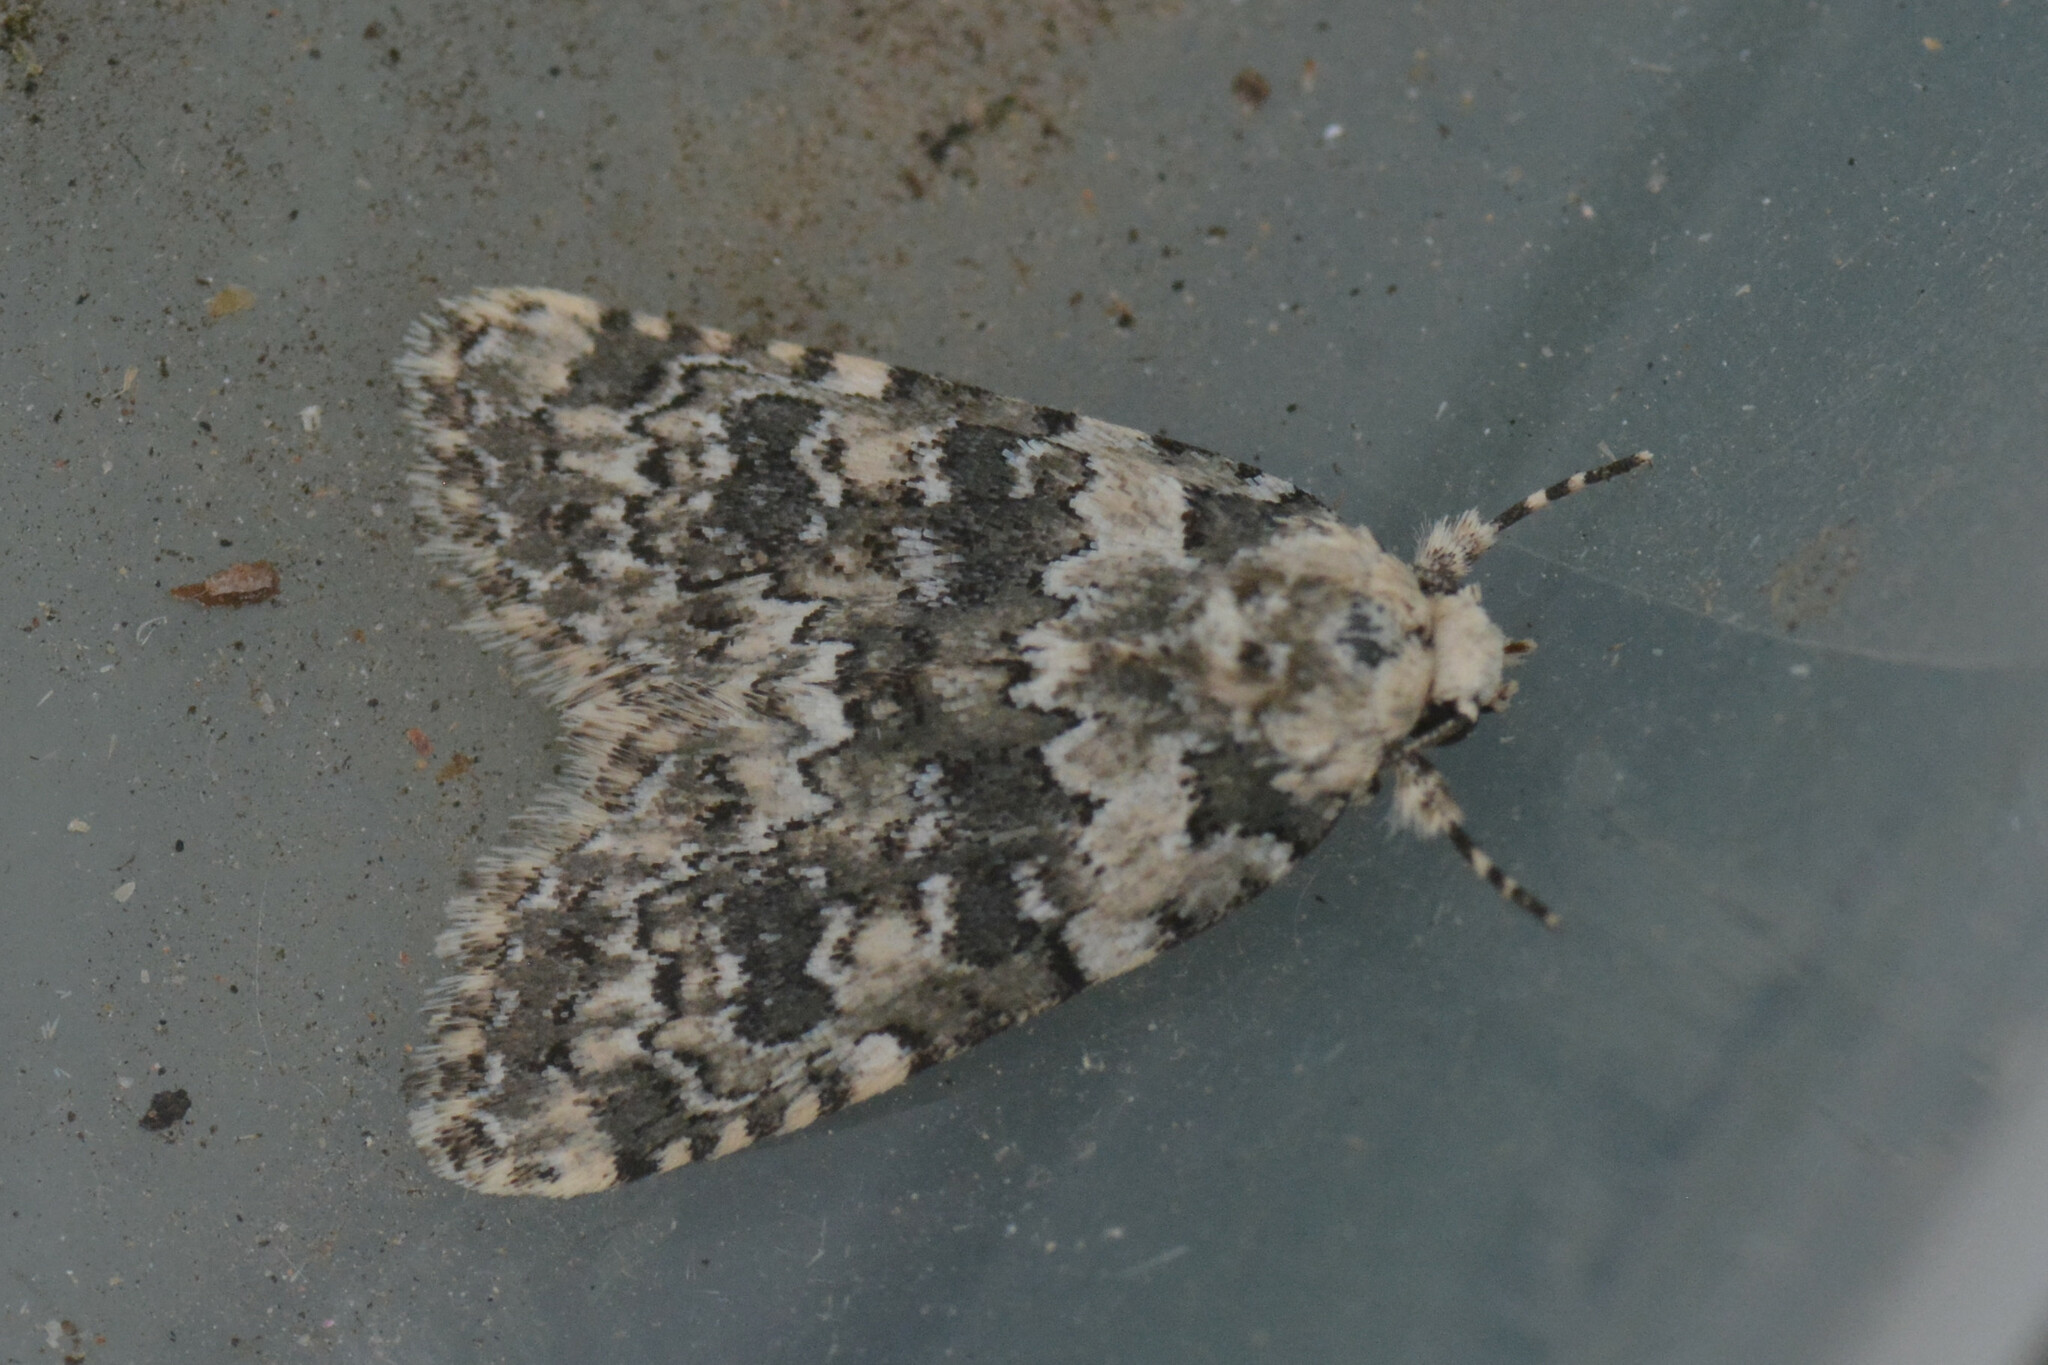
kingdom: Animalia
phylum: Arthropoda
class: Insecta
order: Lepidoptera
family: Noctuidae
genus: Bryophila
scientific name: Bryophila domestica
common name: Marbled beauty
